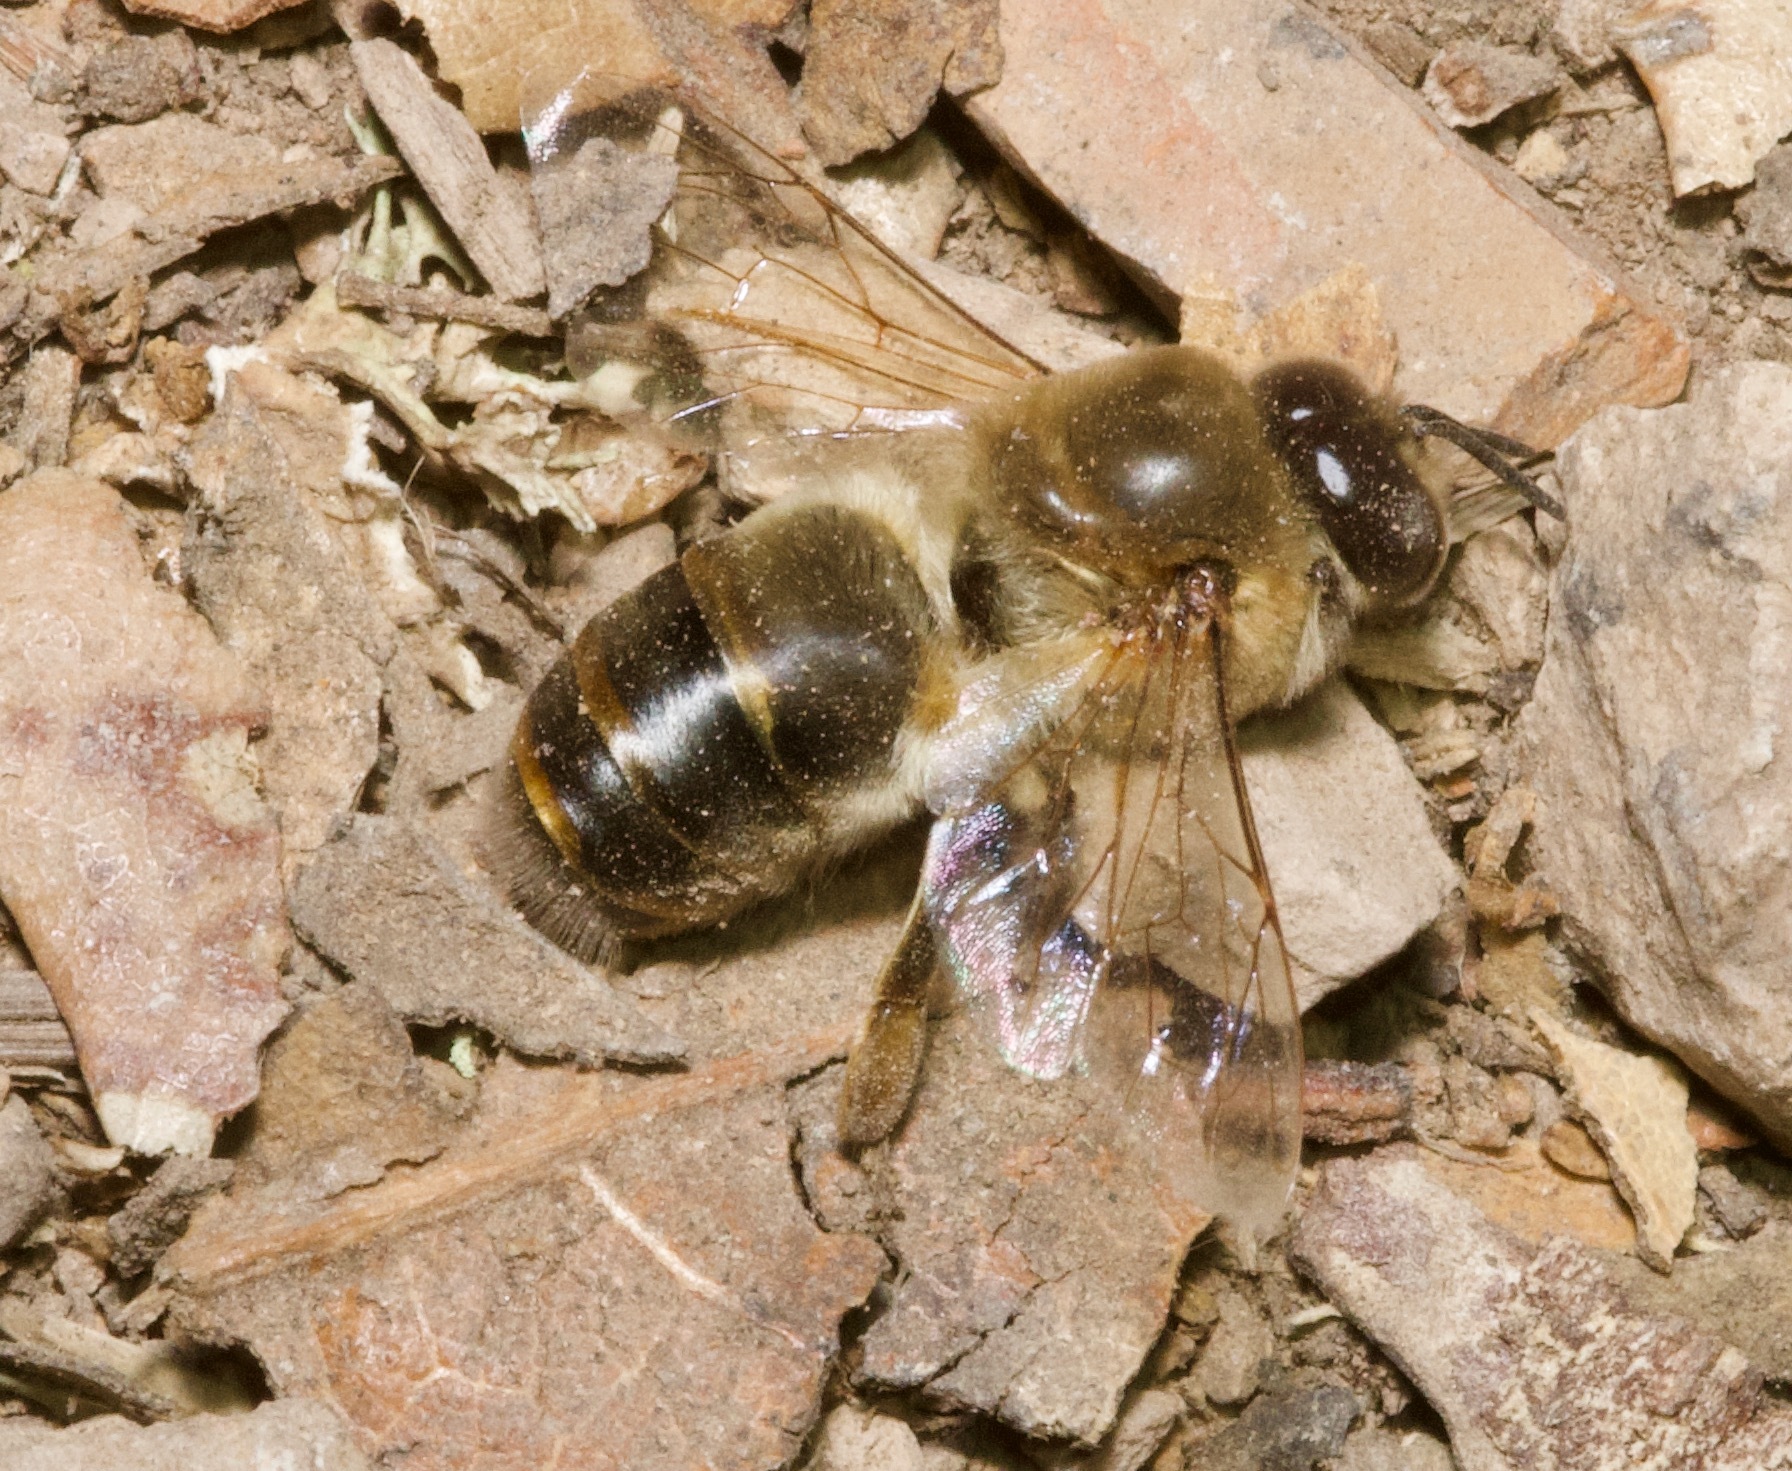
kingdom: Animalia
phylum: Arthropoda
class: Insecta
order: Hymenoptera
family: Apidae
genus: Apis
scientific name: Apis mellifera
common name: Honey bee
